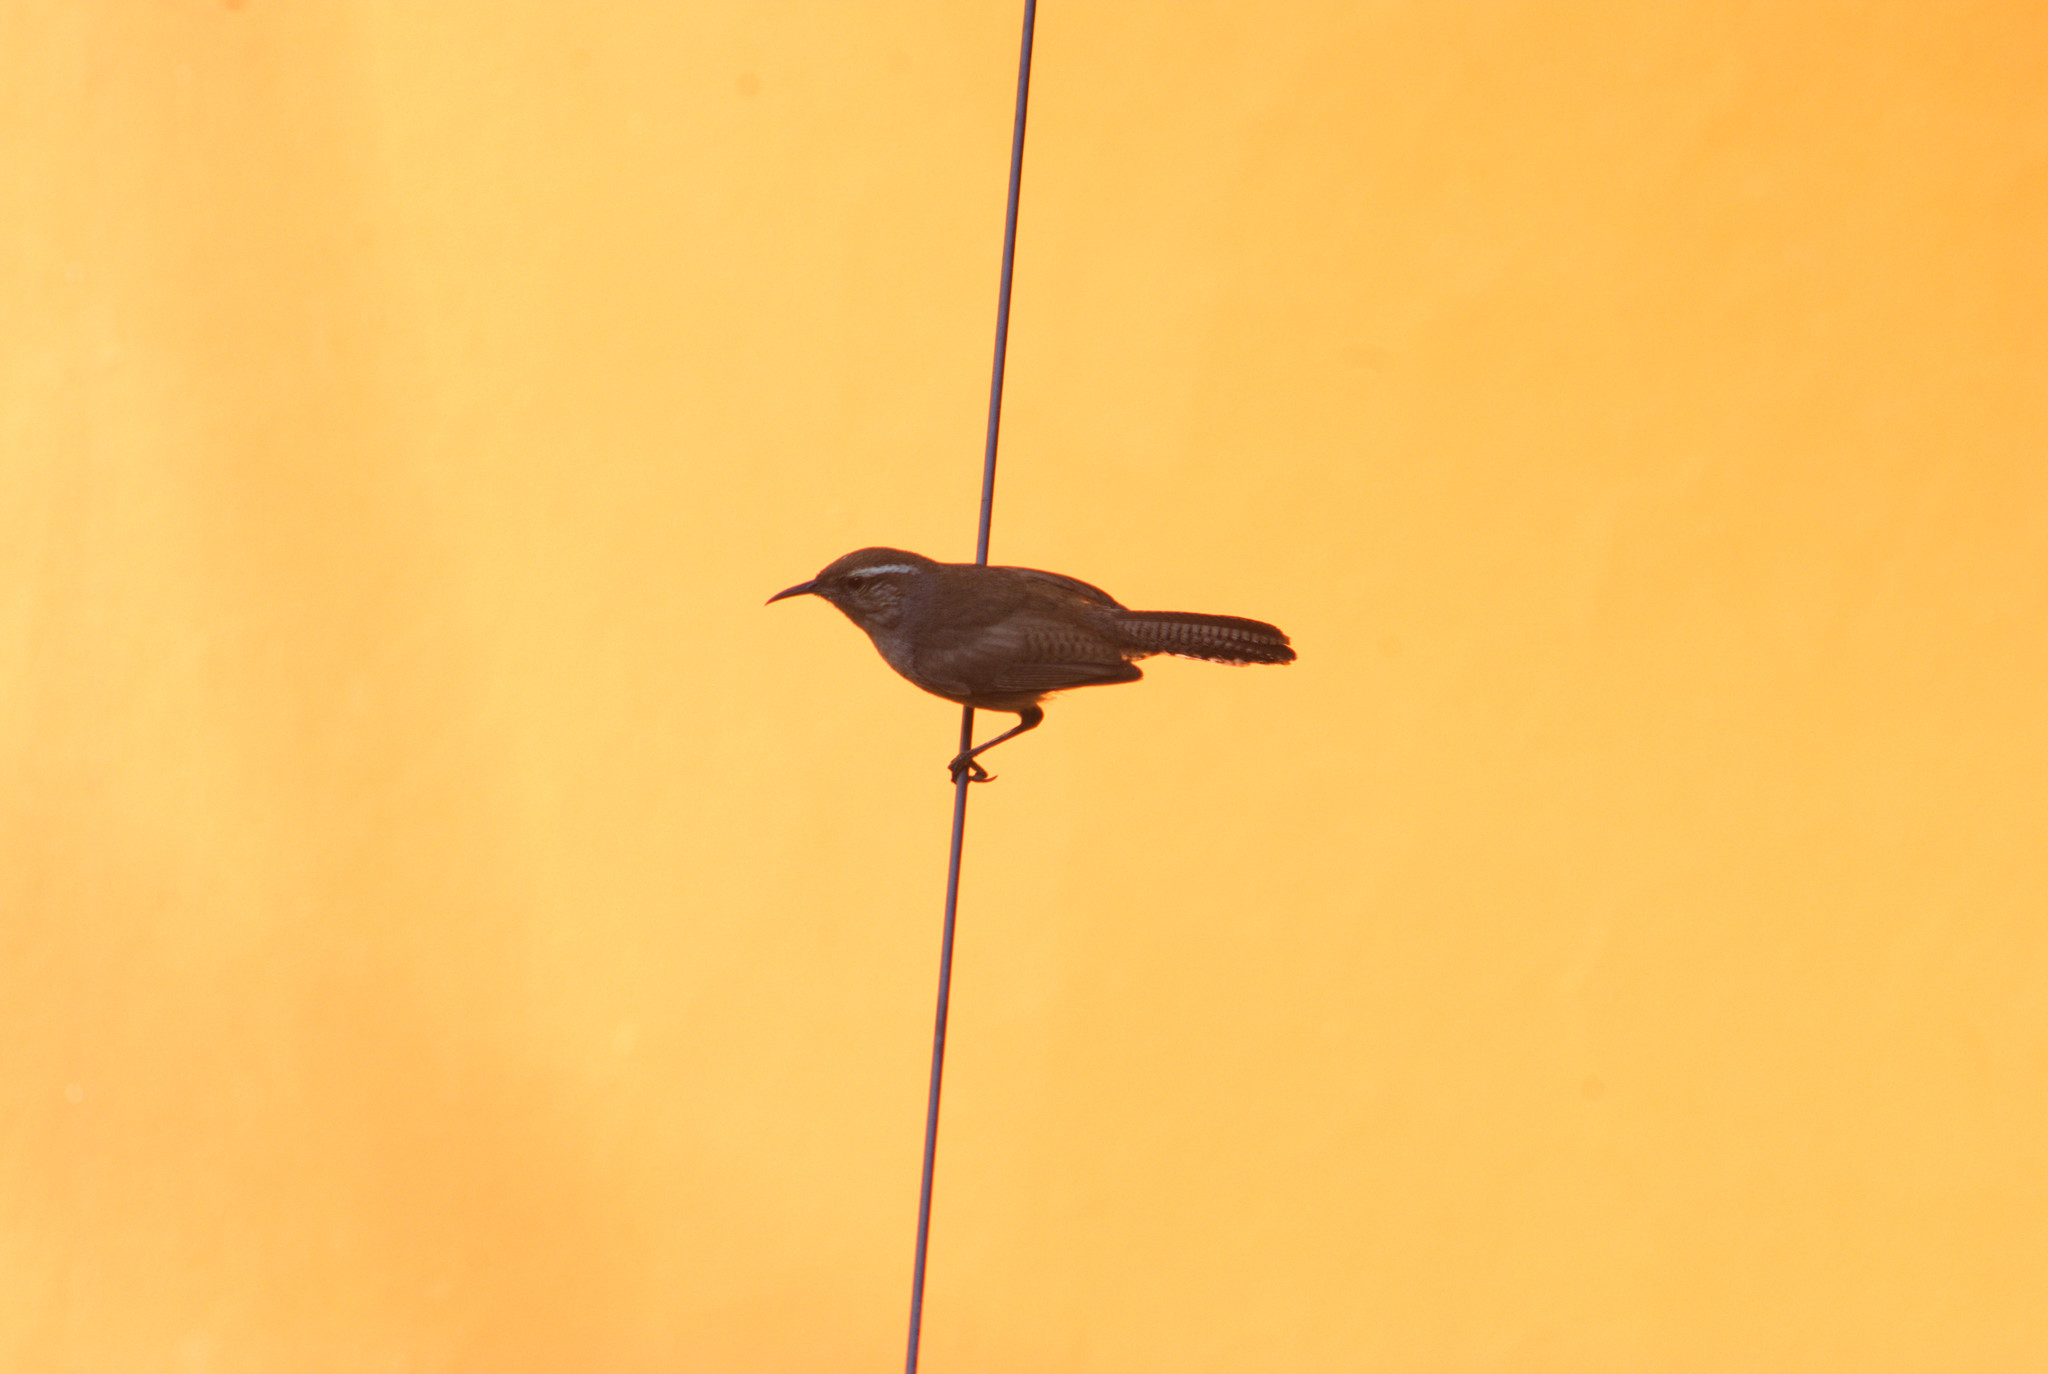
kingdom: Animalia
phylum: Chordata
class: Aves
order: Passeriformes
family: Troglodytidae
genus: Thryomanes
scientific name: Thryomanes bewickii
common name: Bewick's wren
